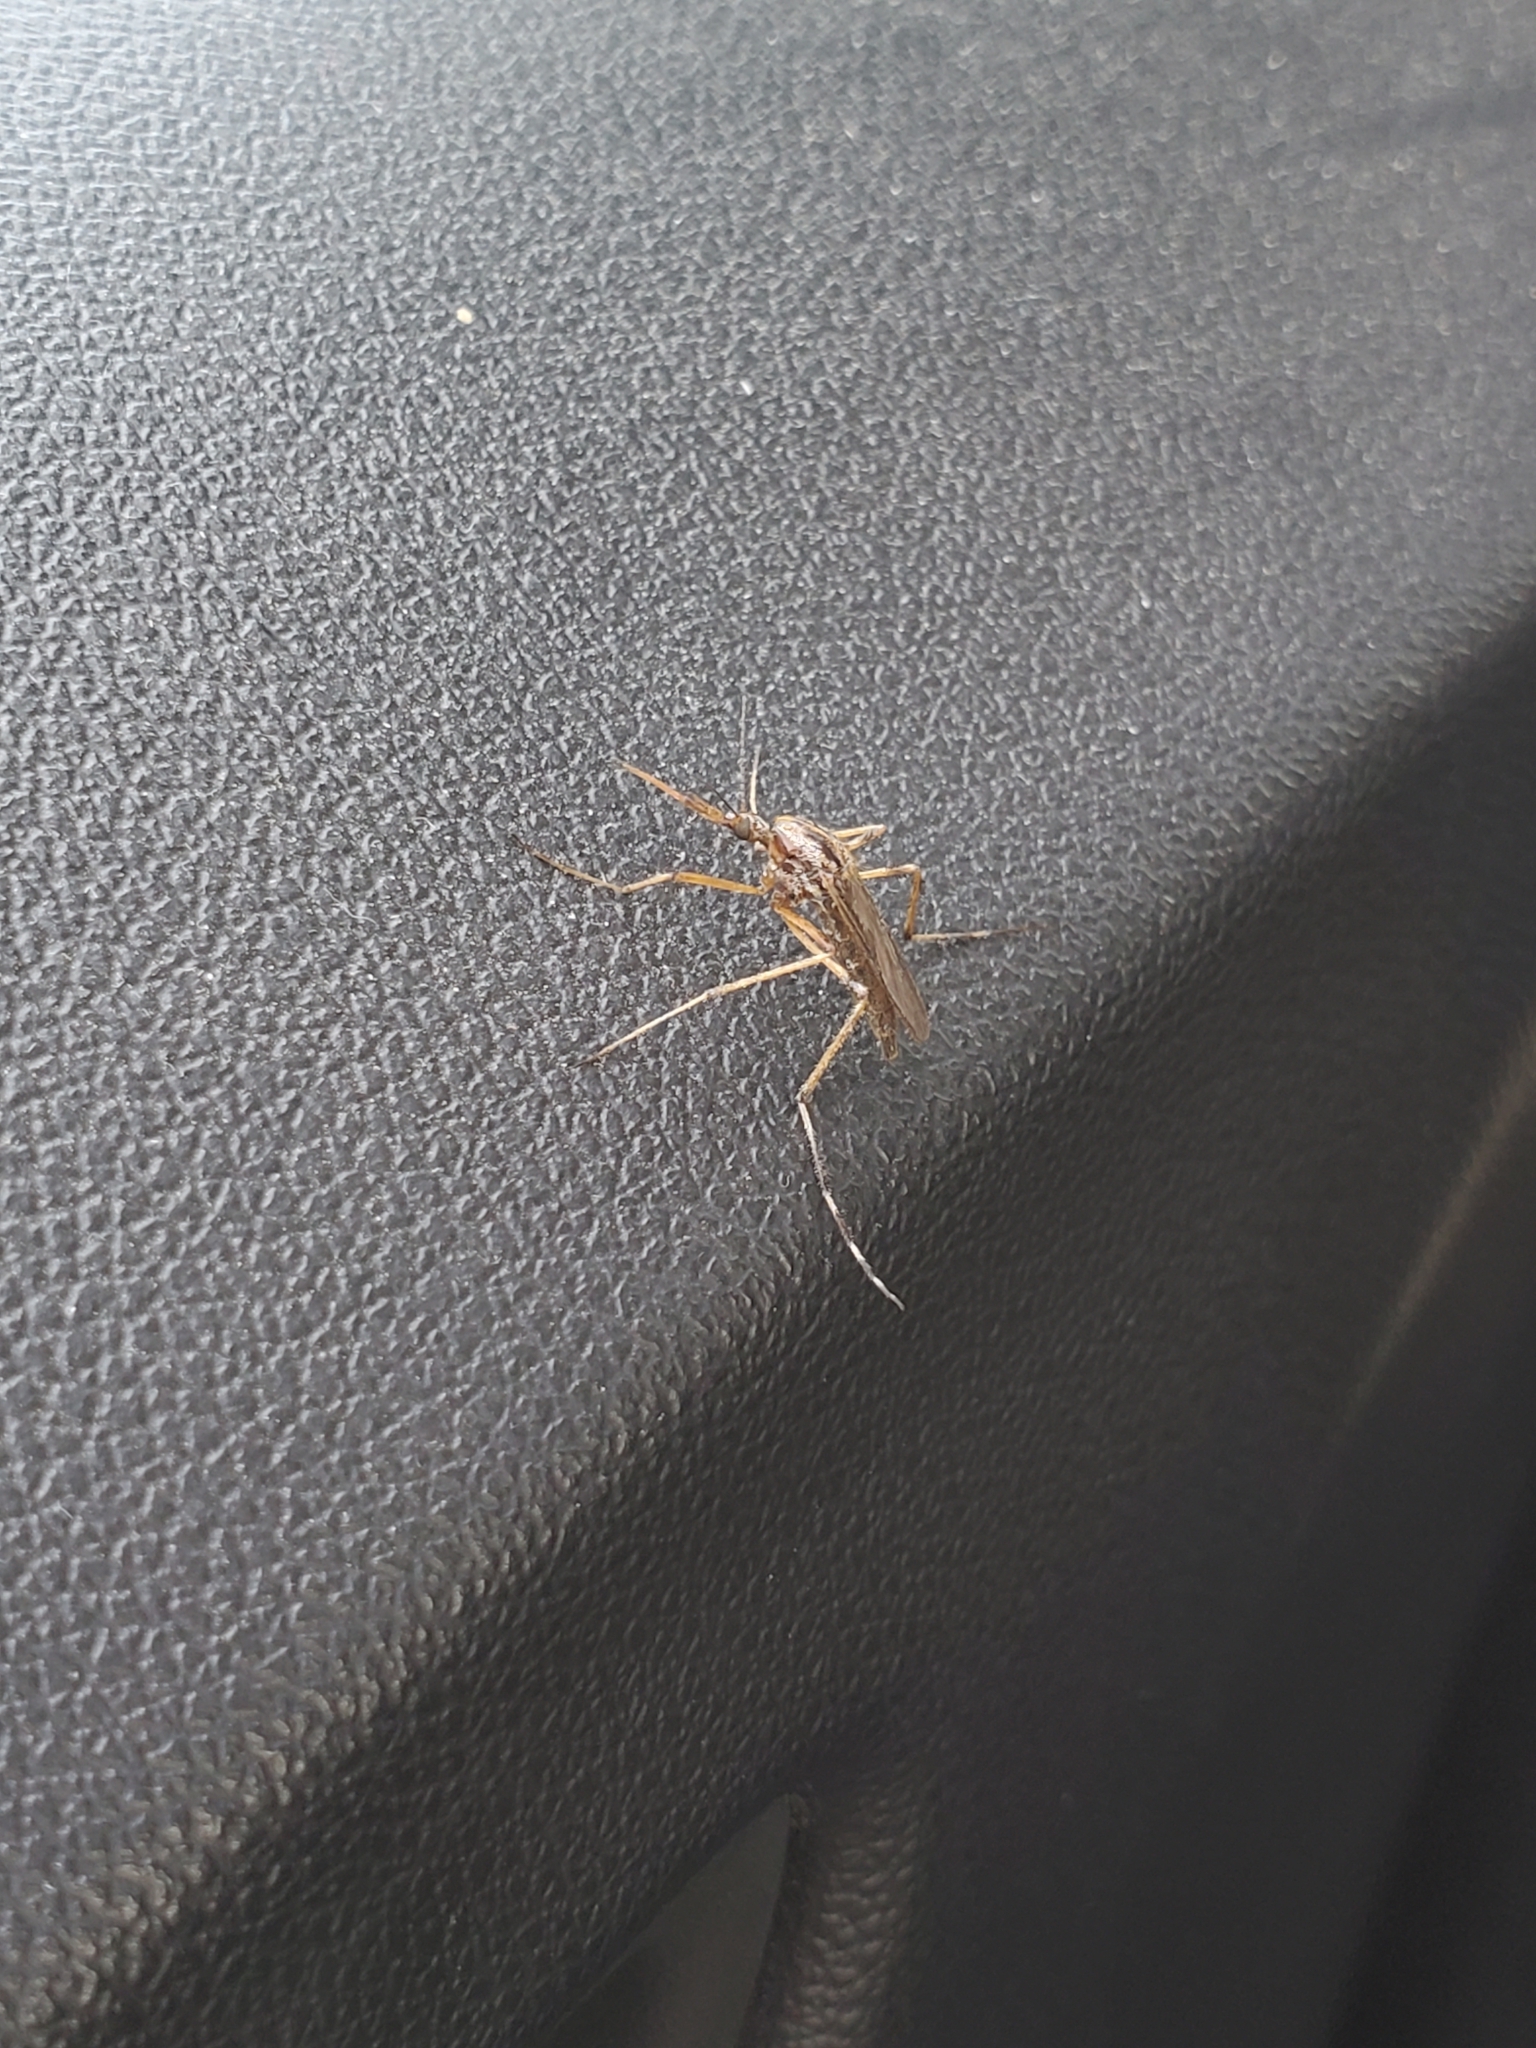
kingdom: Animalia
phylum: Arthropoda
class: Insecta
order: Diptera
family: Culicidae
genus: Psorophora
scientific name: Psorophora ciliata
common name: Gallinipper
